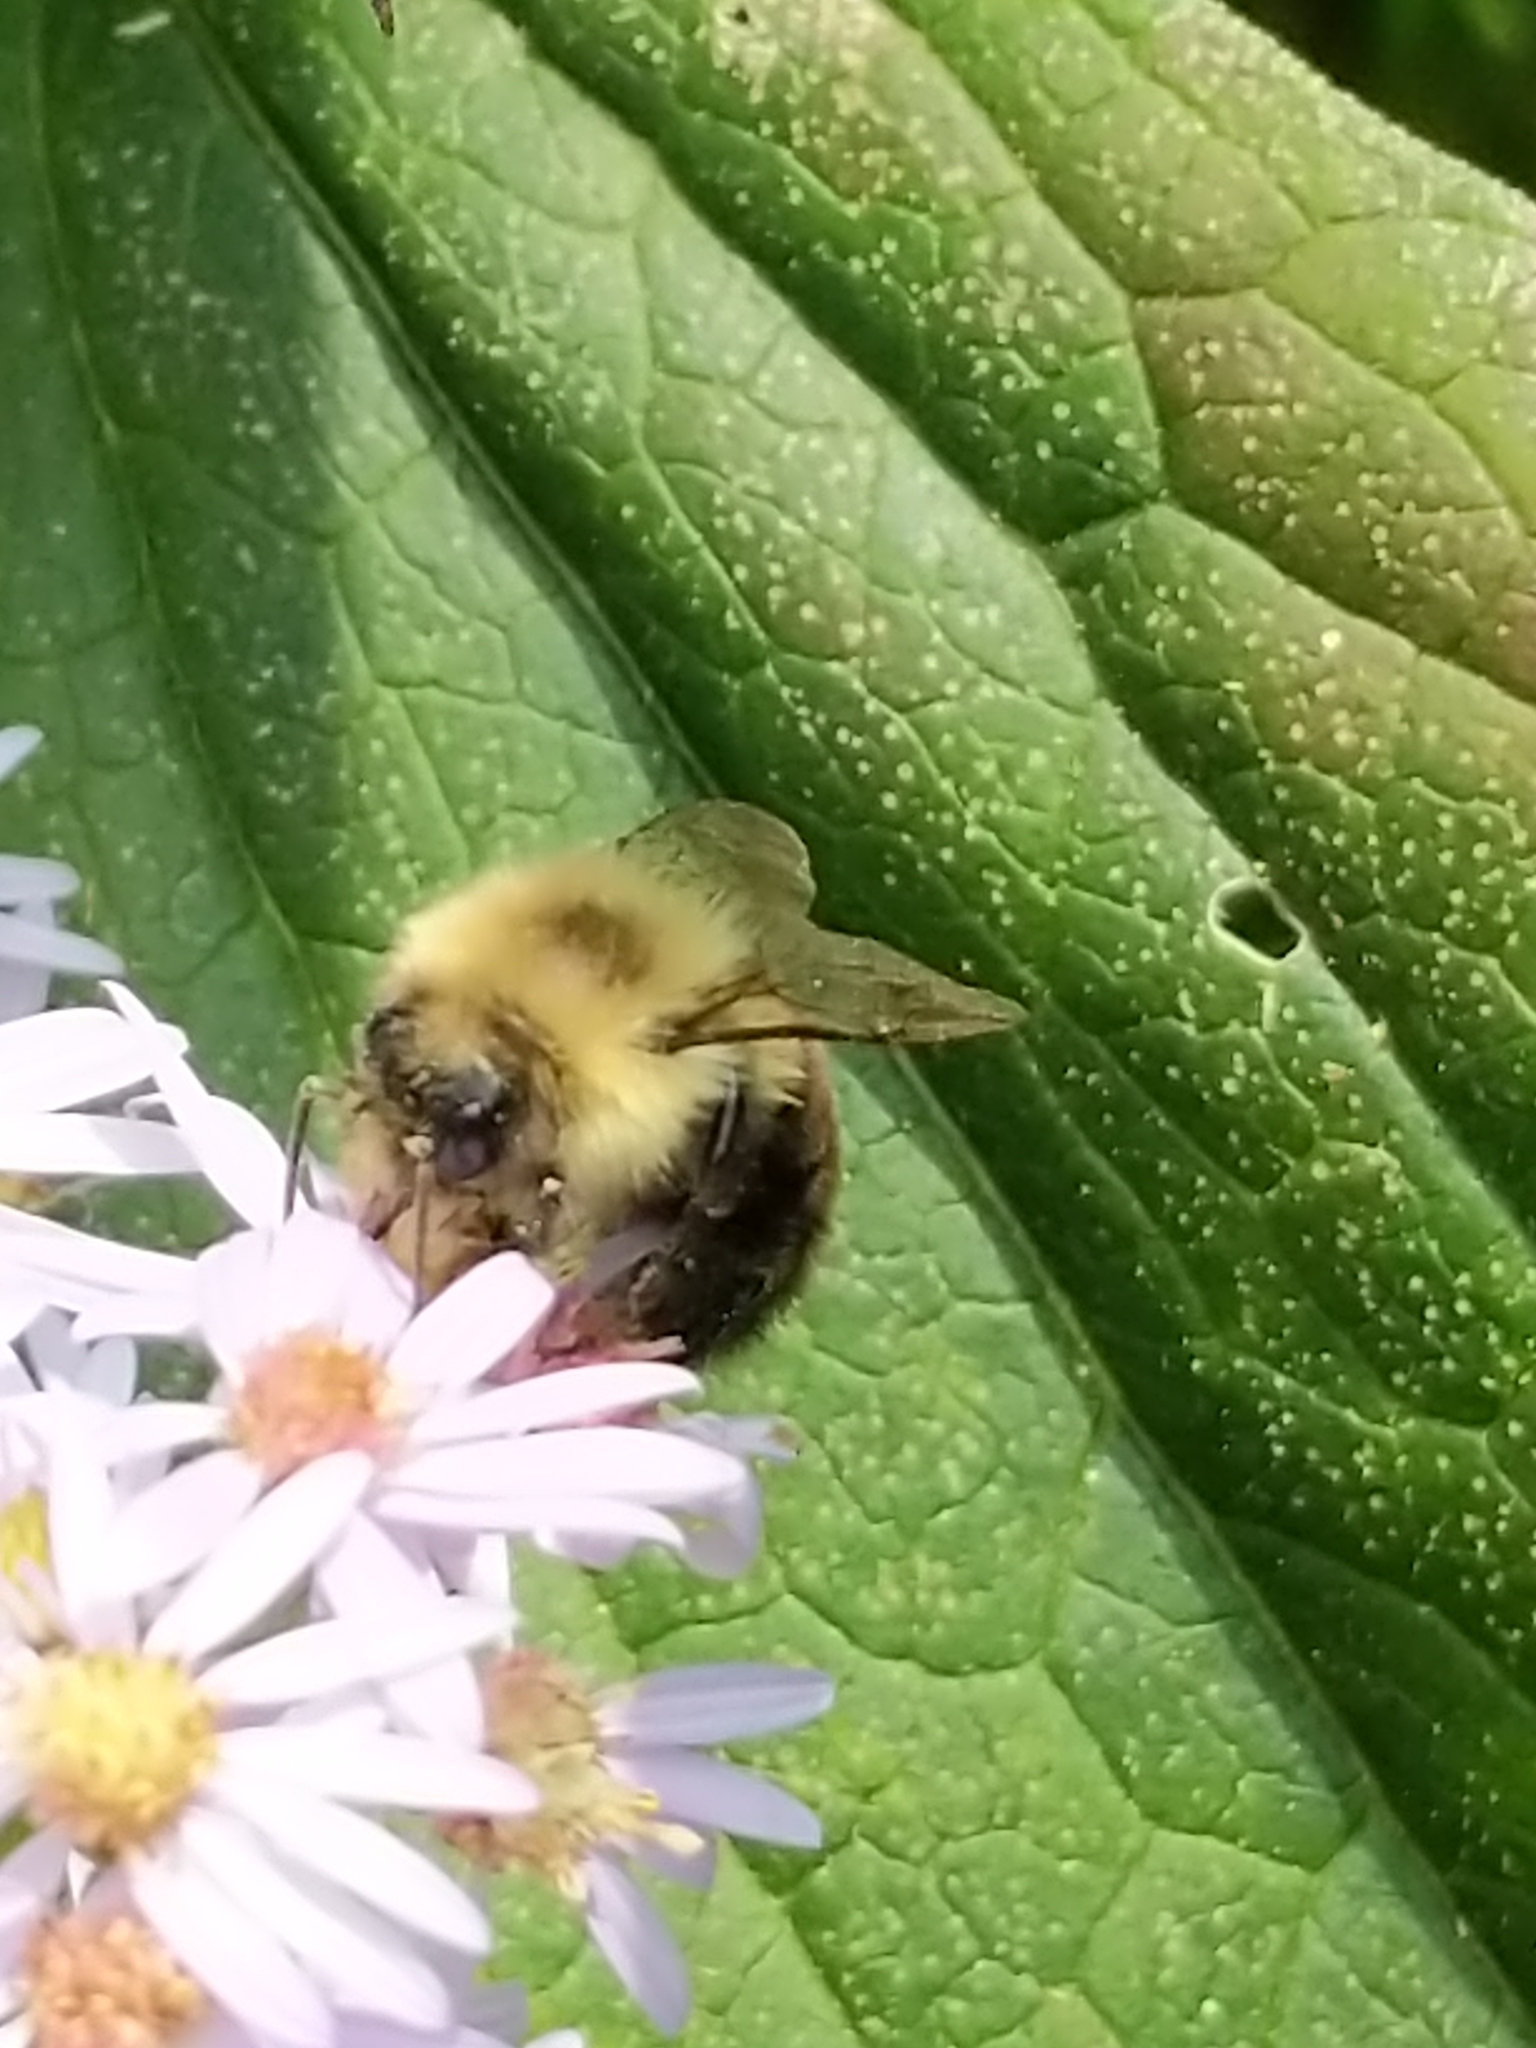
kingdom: Animalia
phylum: Arthropoda
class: Insecta
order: Hymenoptera
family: Apidae
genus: Bombus
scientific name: Bombus impatiens
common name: Common eastern bumble bee
